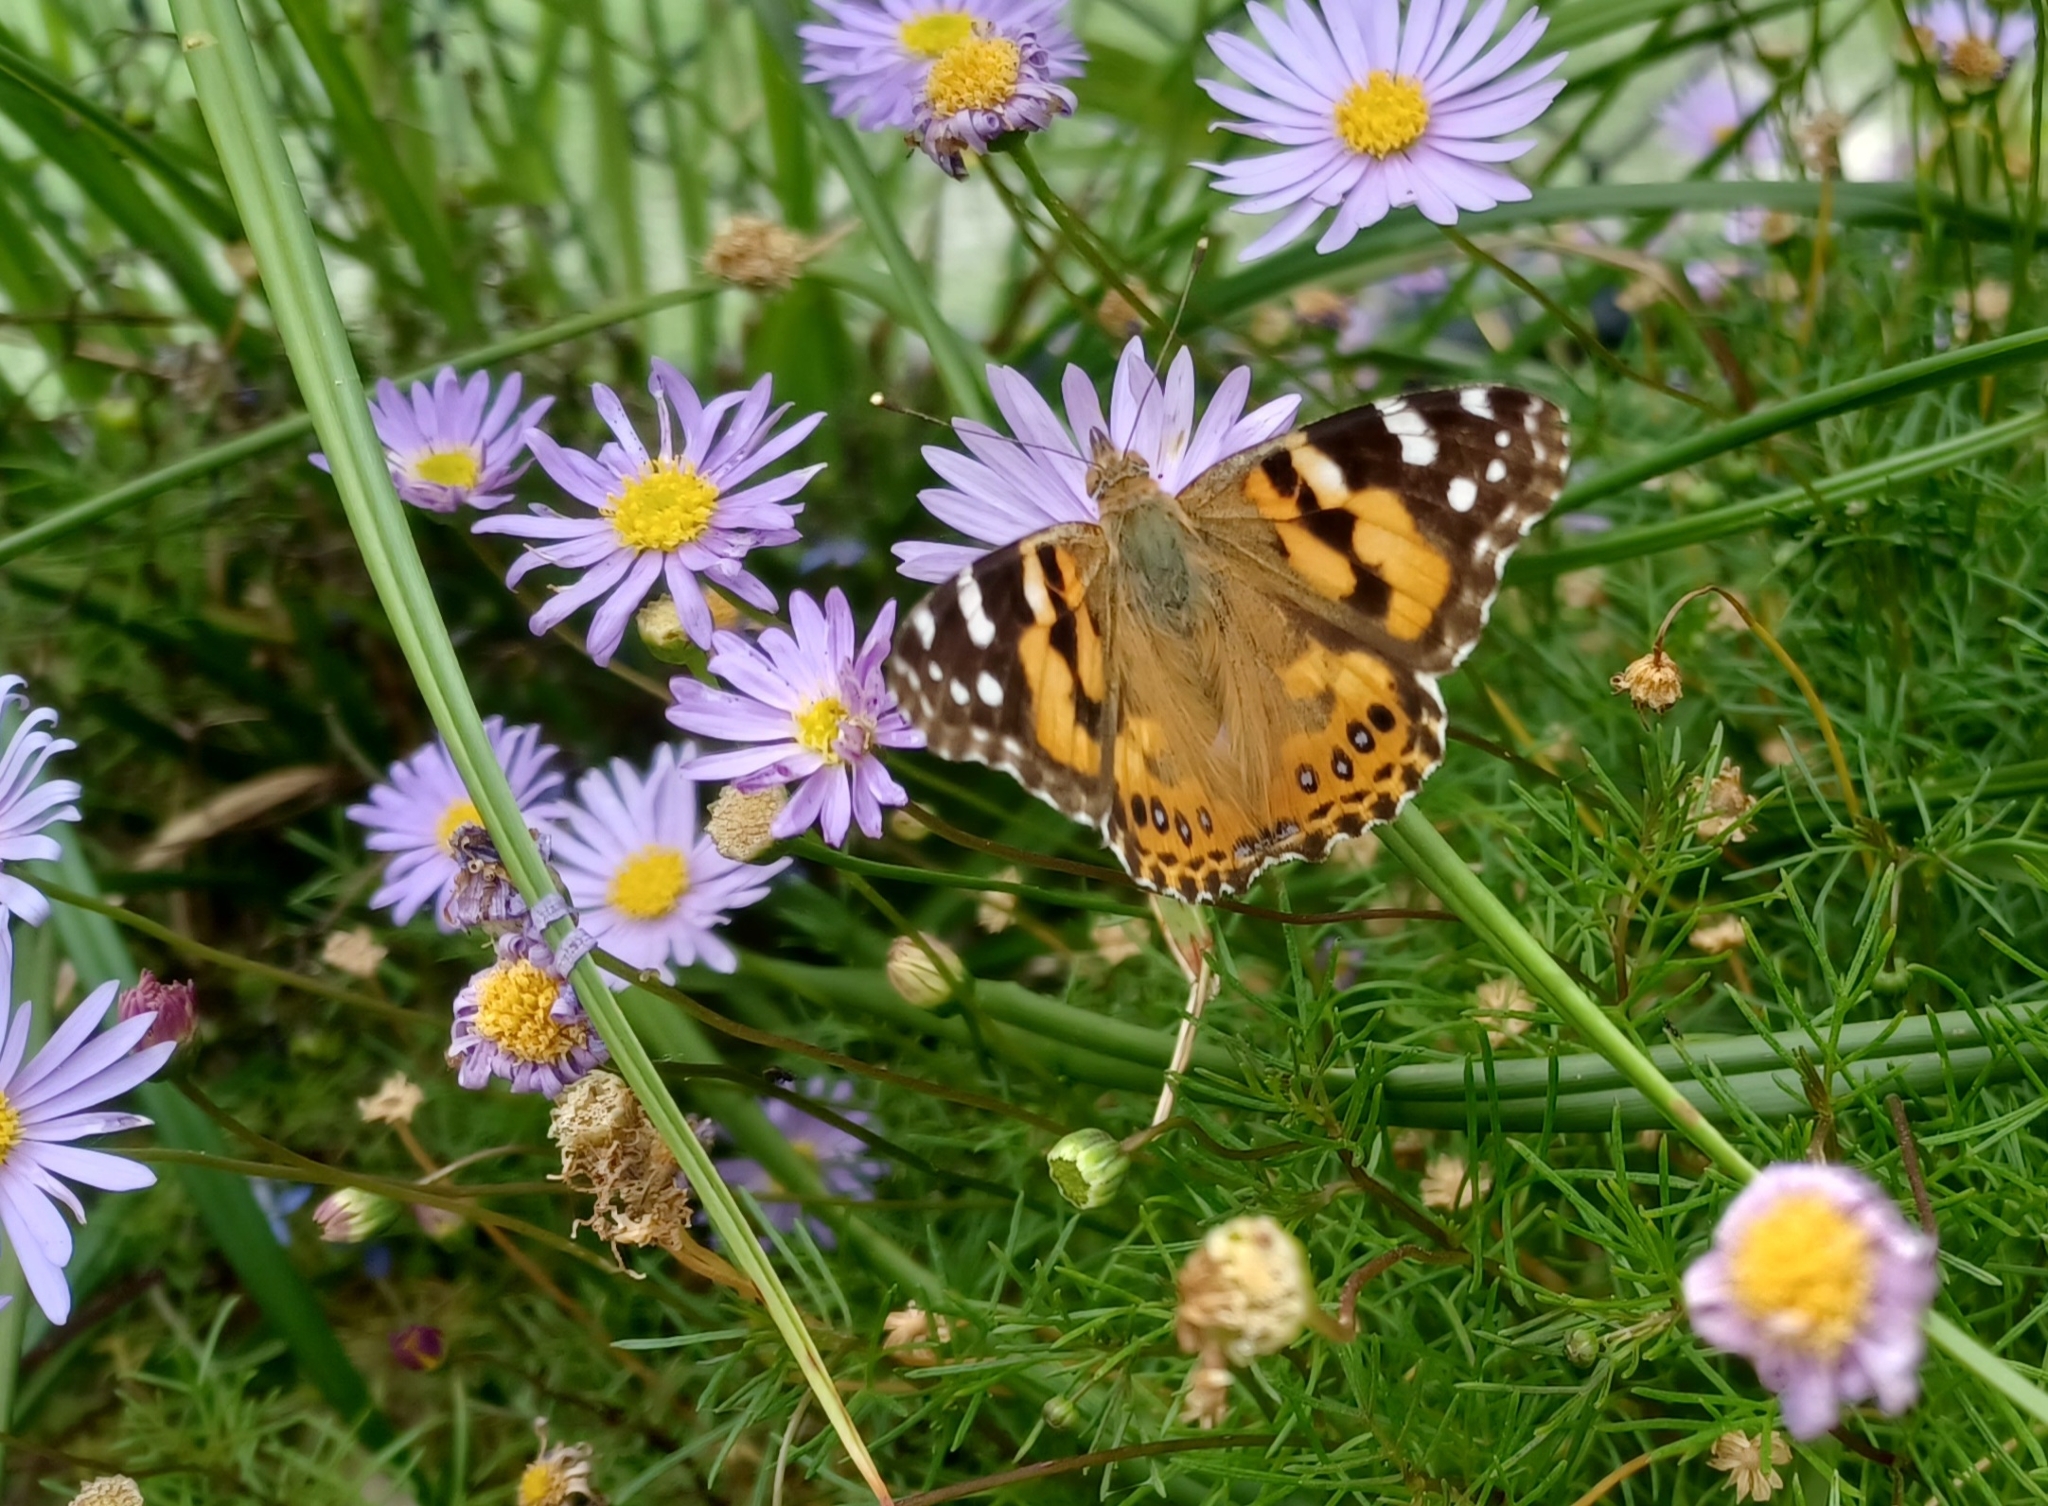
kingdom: Animalia
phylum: Arthropoda
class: Insecta
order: Lepidoptera
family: Nymphalidae
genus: Vanessa
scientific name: Vanessa kershawi
